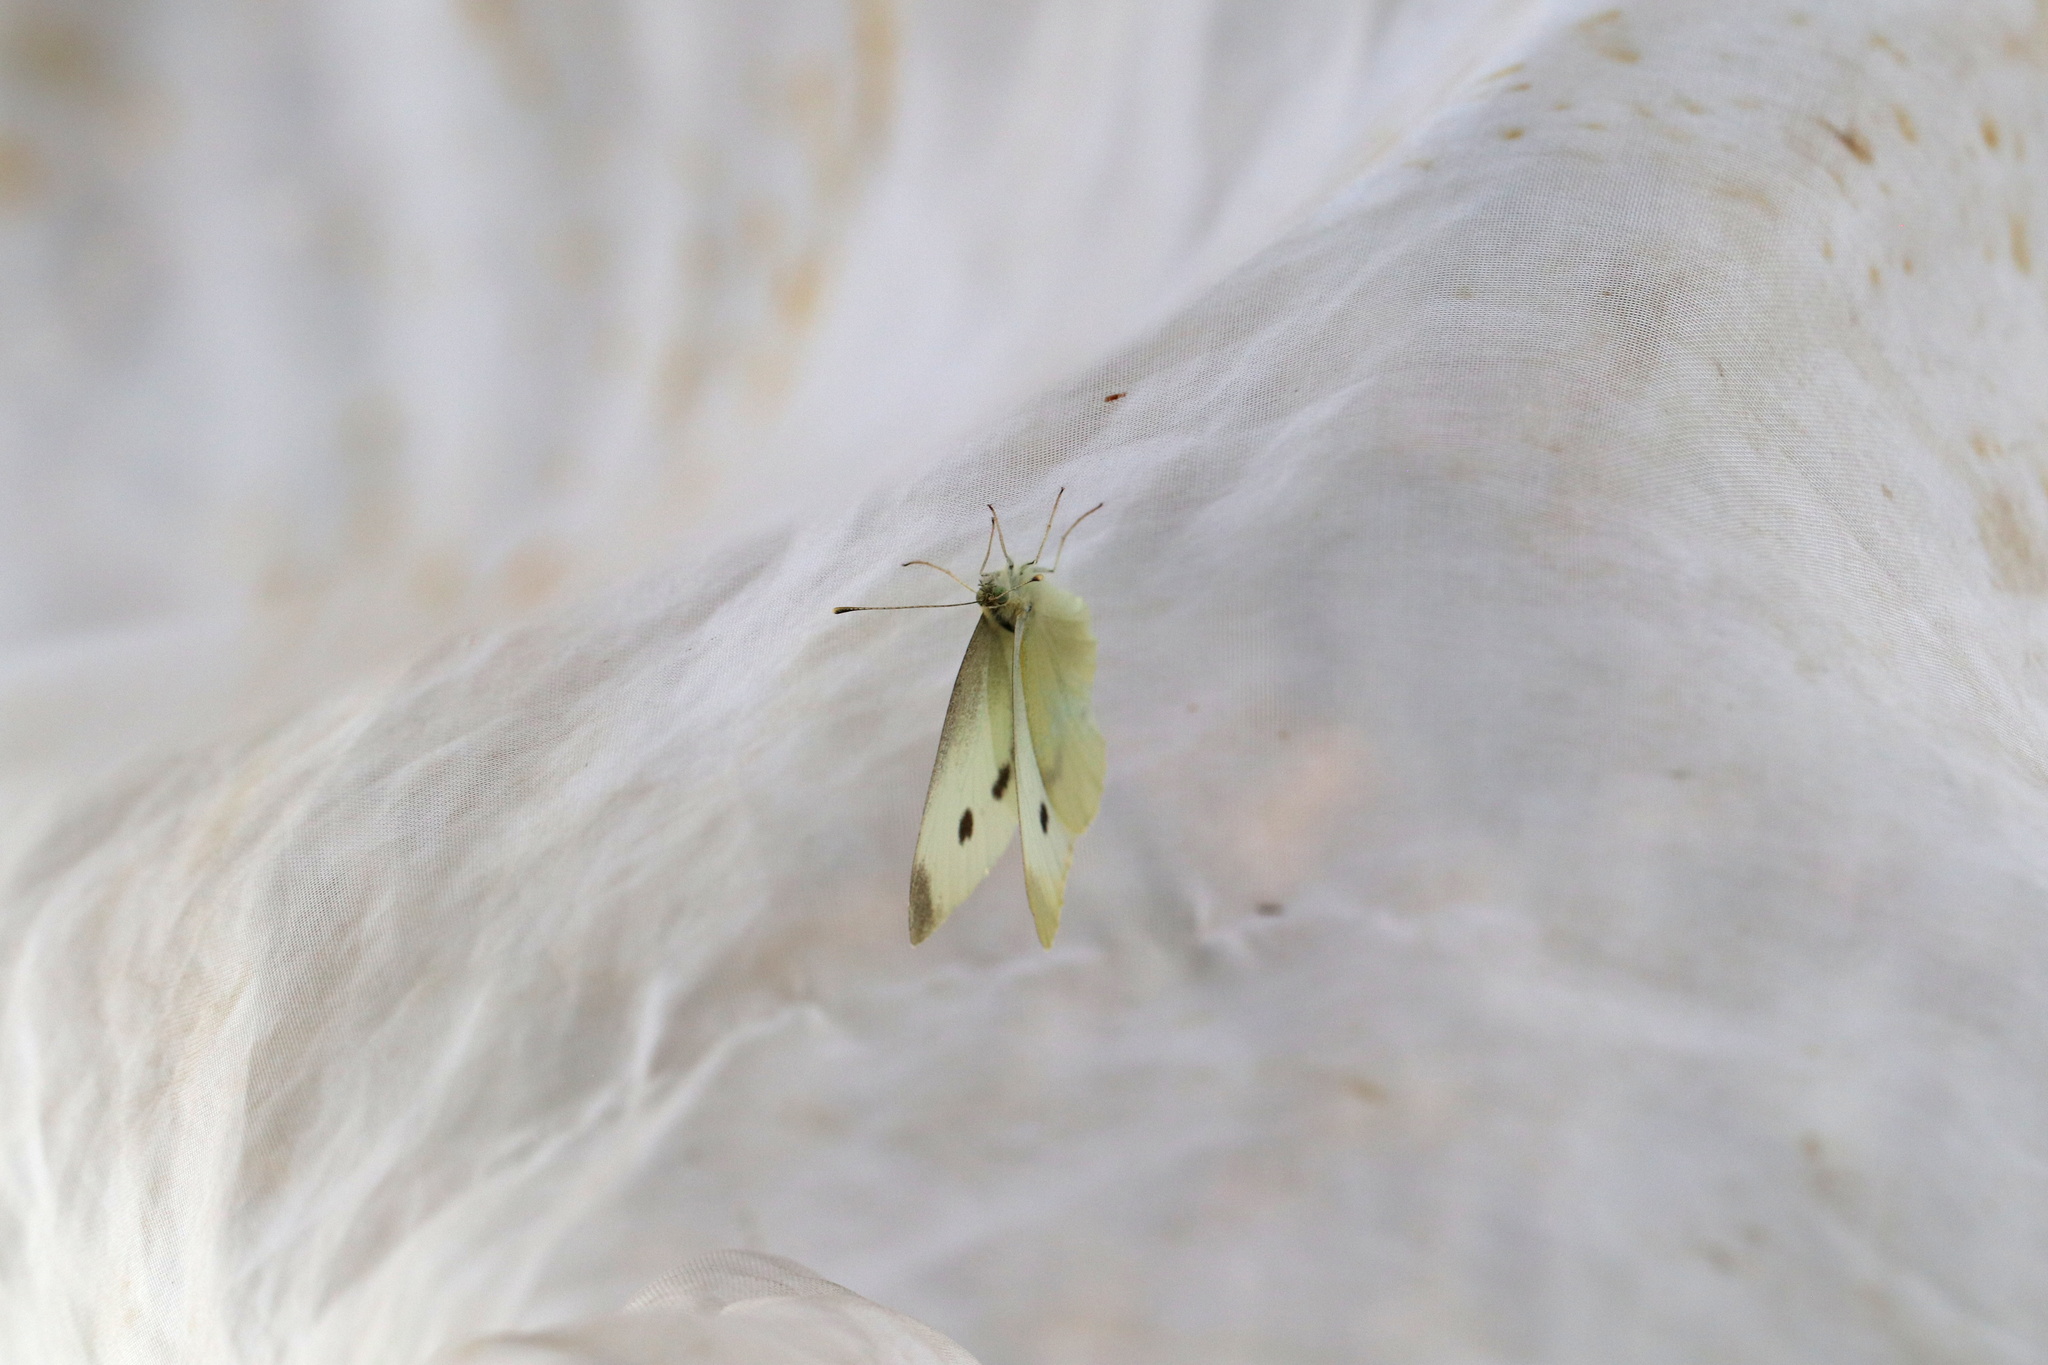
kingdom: Animalia
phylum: Arthropoda
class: Insecta
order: Lepidoptera
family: Pieridae
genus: Pieris
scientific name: Pieris rapae
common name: Small white
